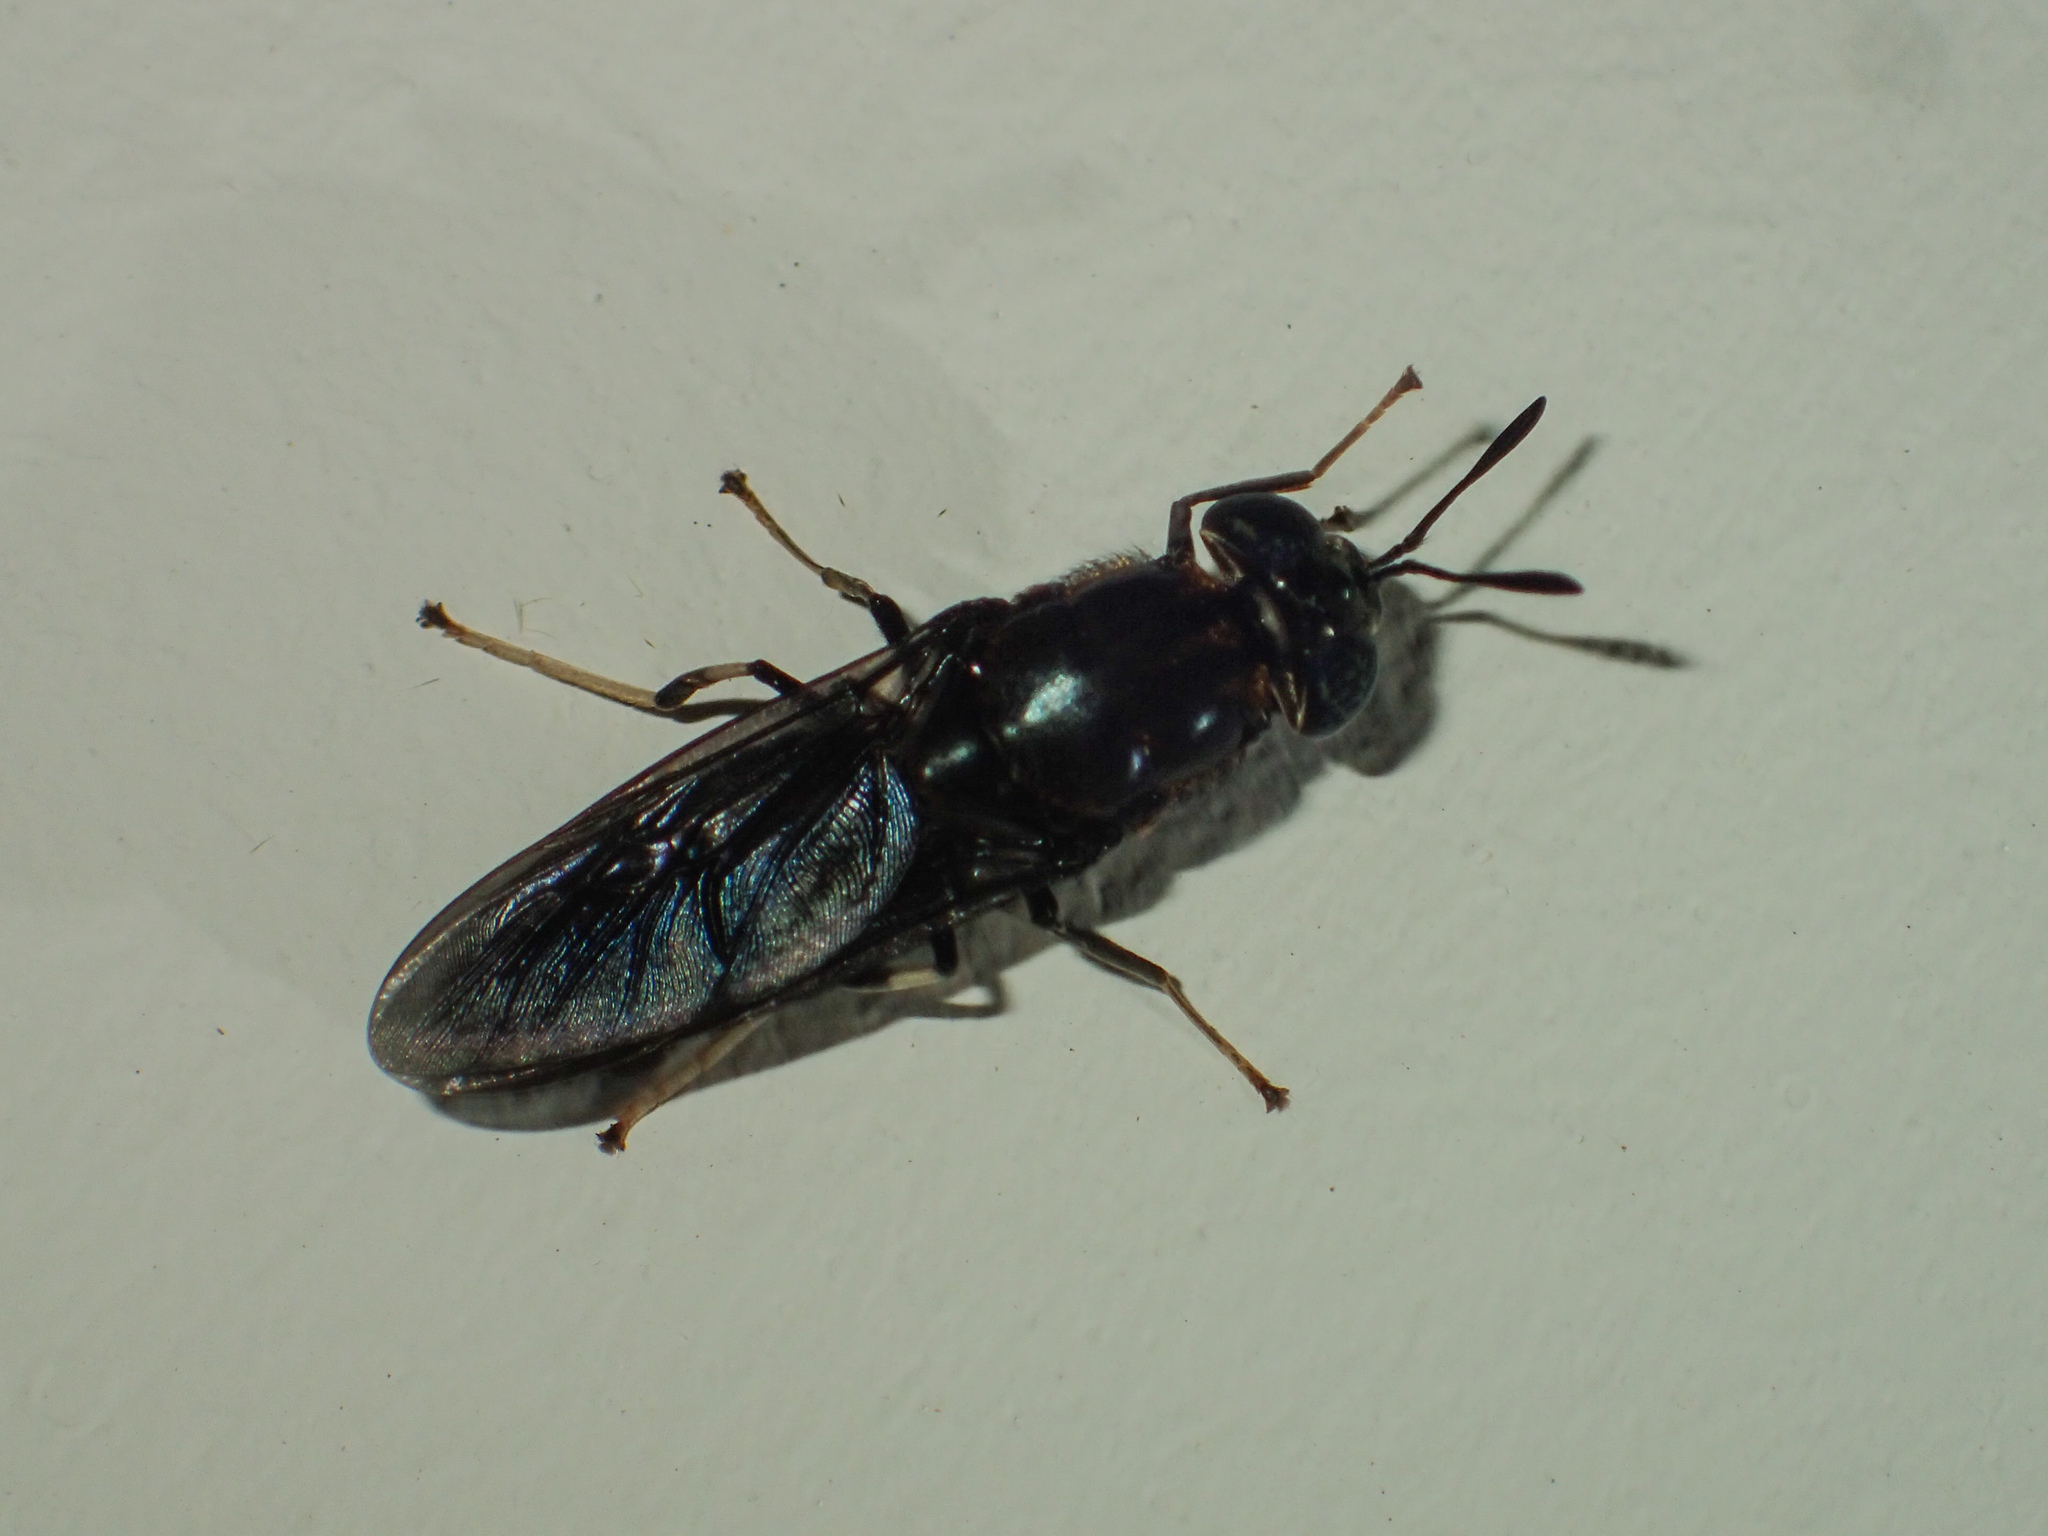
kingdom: Animalia
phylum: Arthropoda
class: Insecta
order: Diptera
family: Stratiomyidae
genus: Hermetia
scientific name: Hermetia illucens
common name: Black soldier fly
